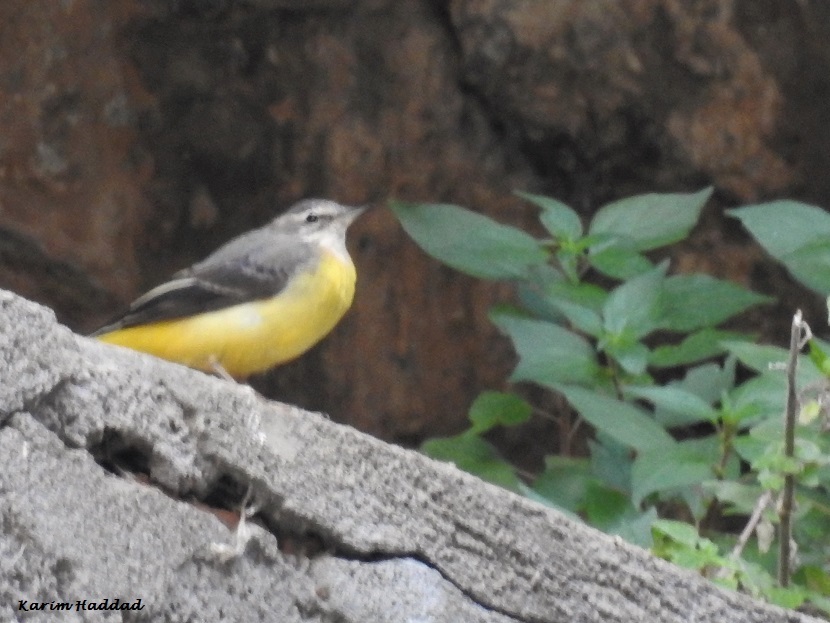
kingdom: Animalia
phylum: Chordata
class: Aves
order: Passeriformes
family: Motacillidae
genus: Motacilla
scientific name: Motacilla cinerea
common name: Grey wagtail
